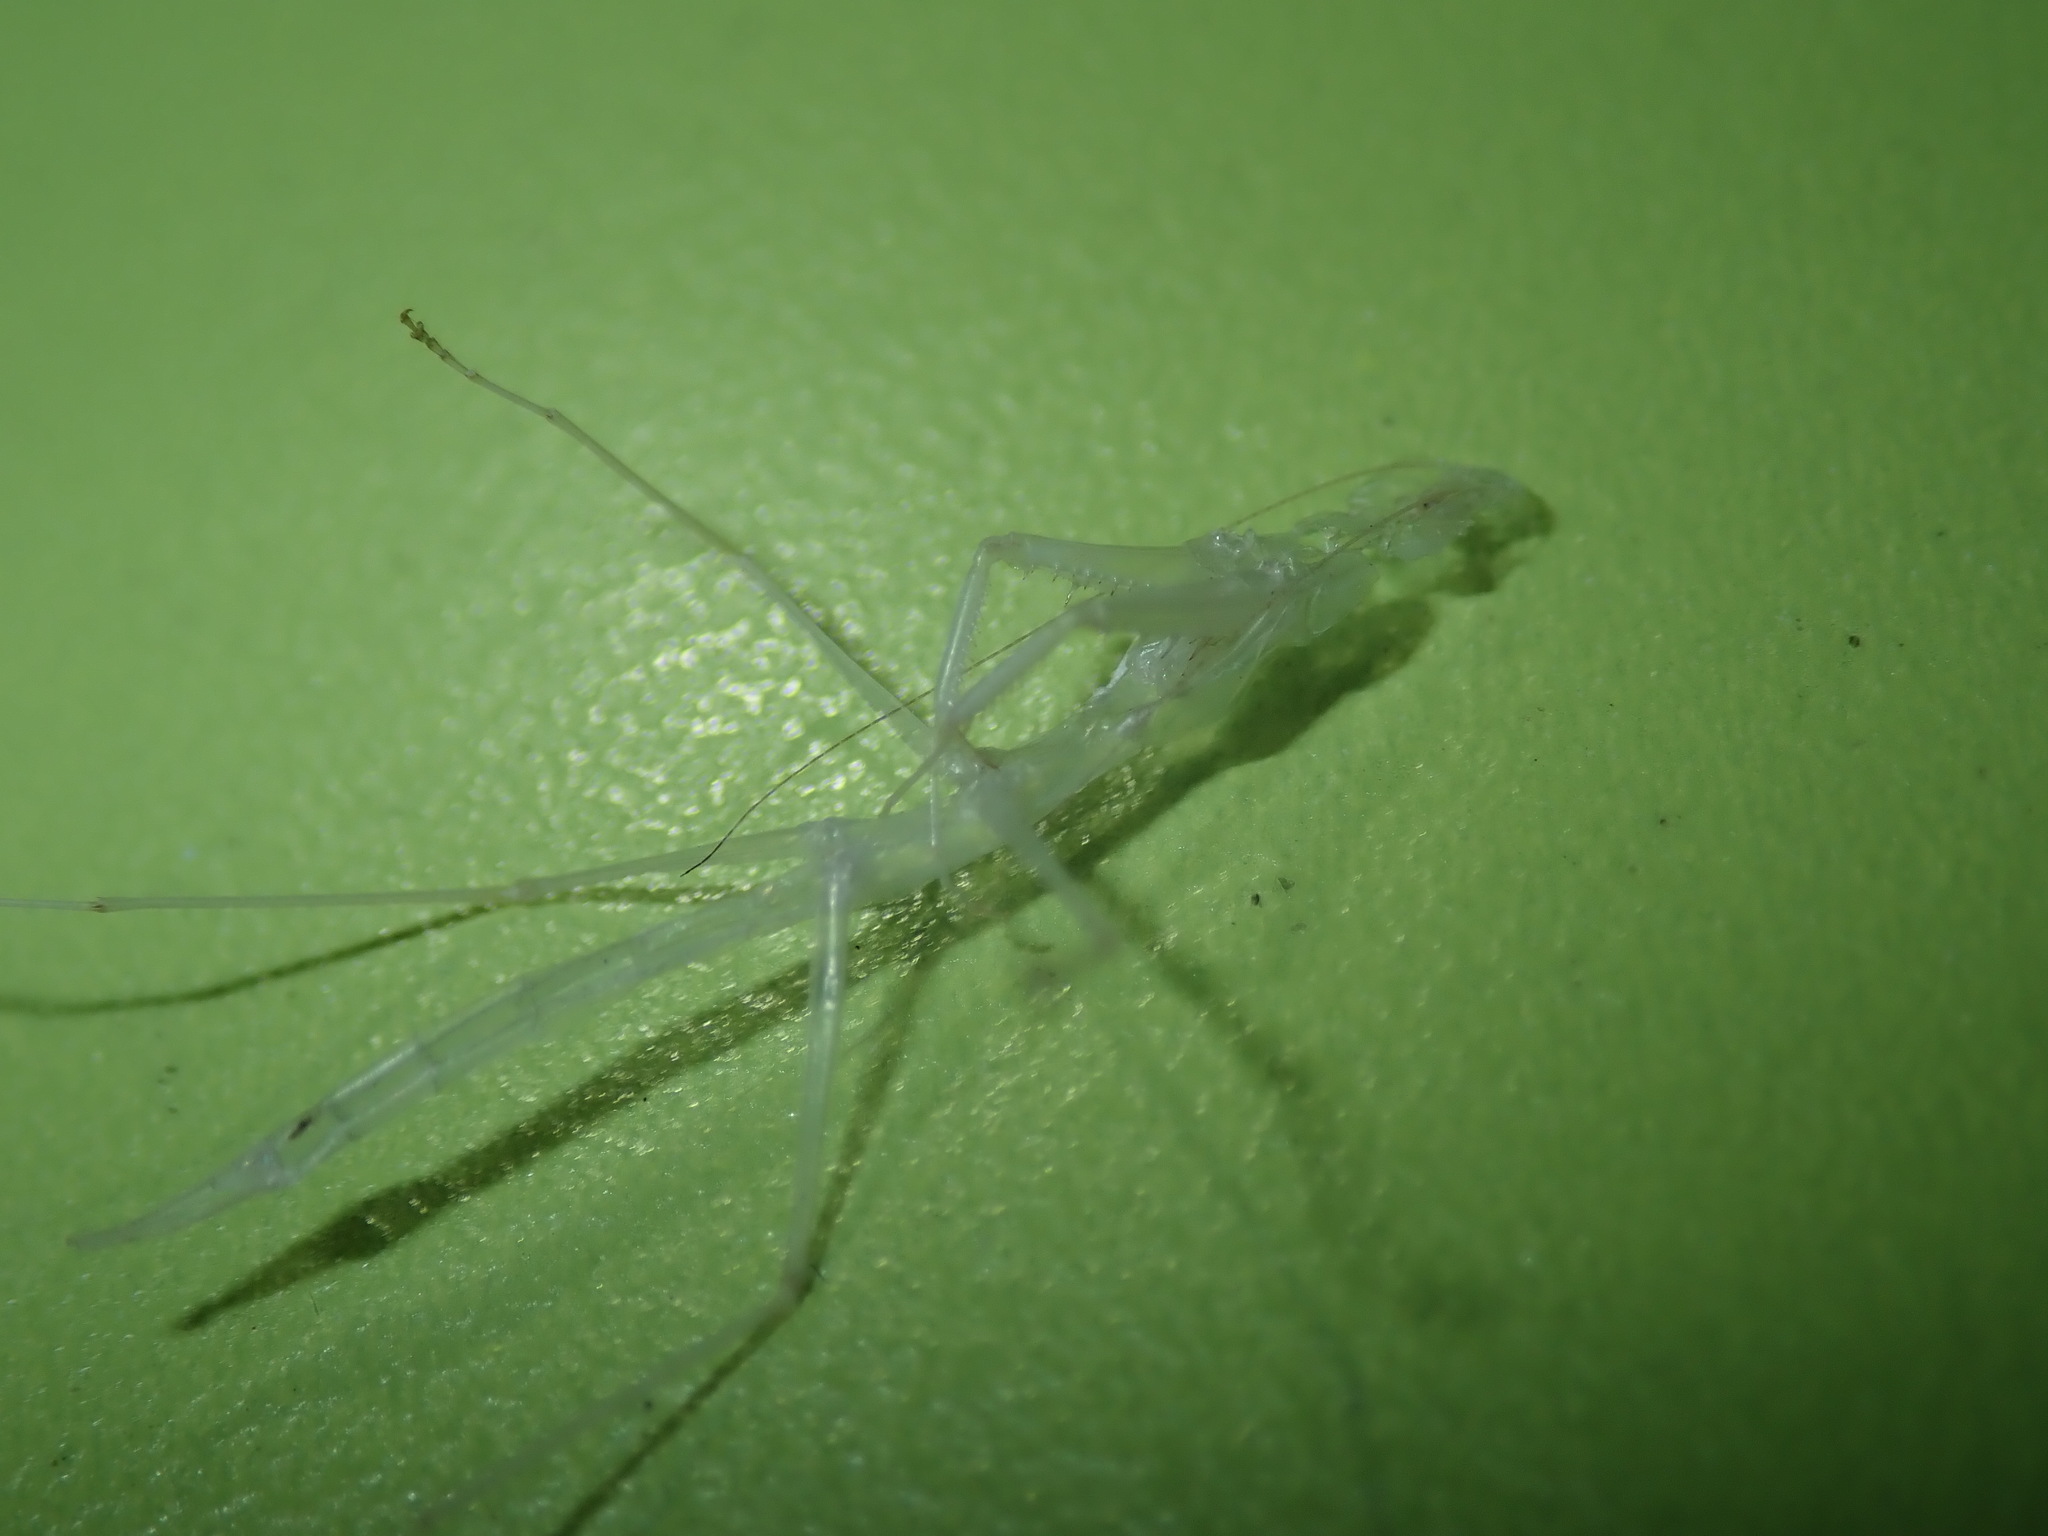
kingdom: Animalia
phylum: Arthropoda
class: Insecta
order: Mantodea
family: Mantidae
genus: Archimantis
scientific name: Archimantis latistyla
